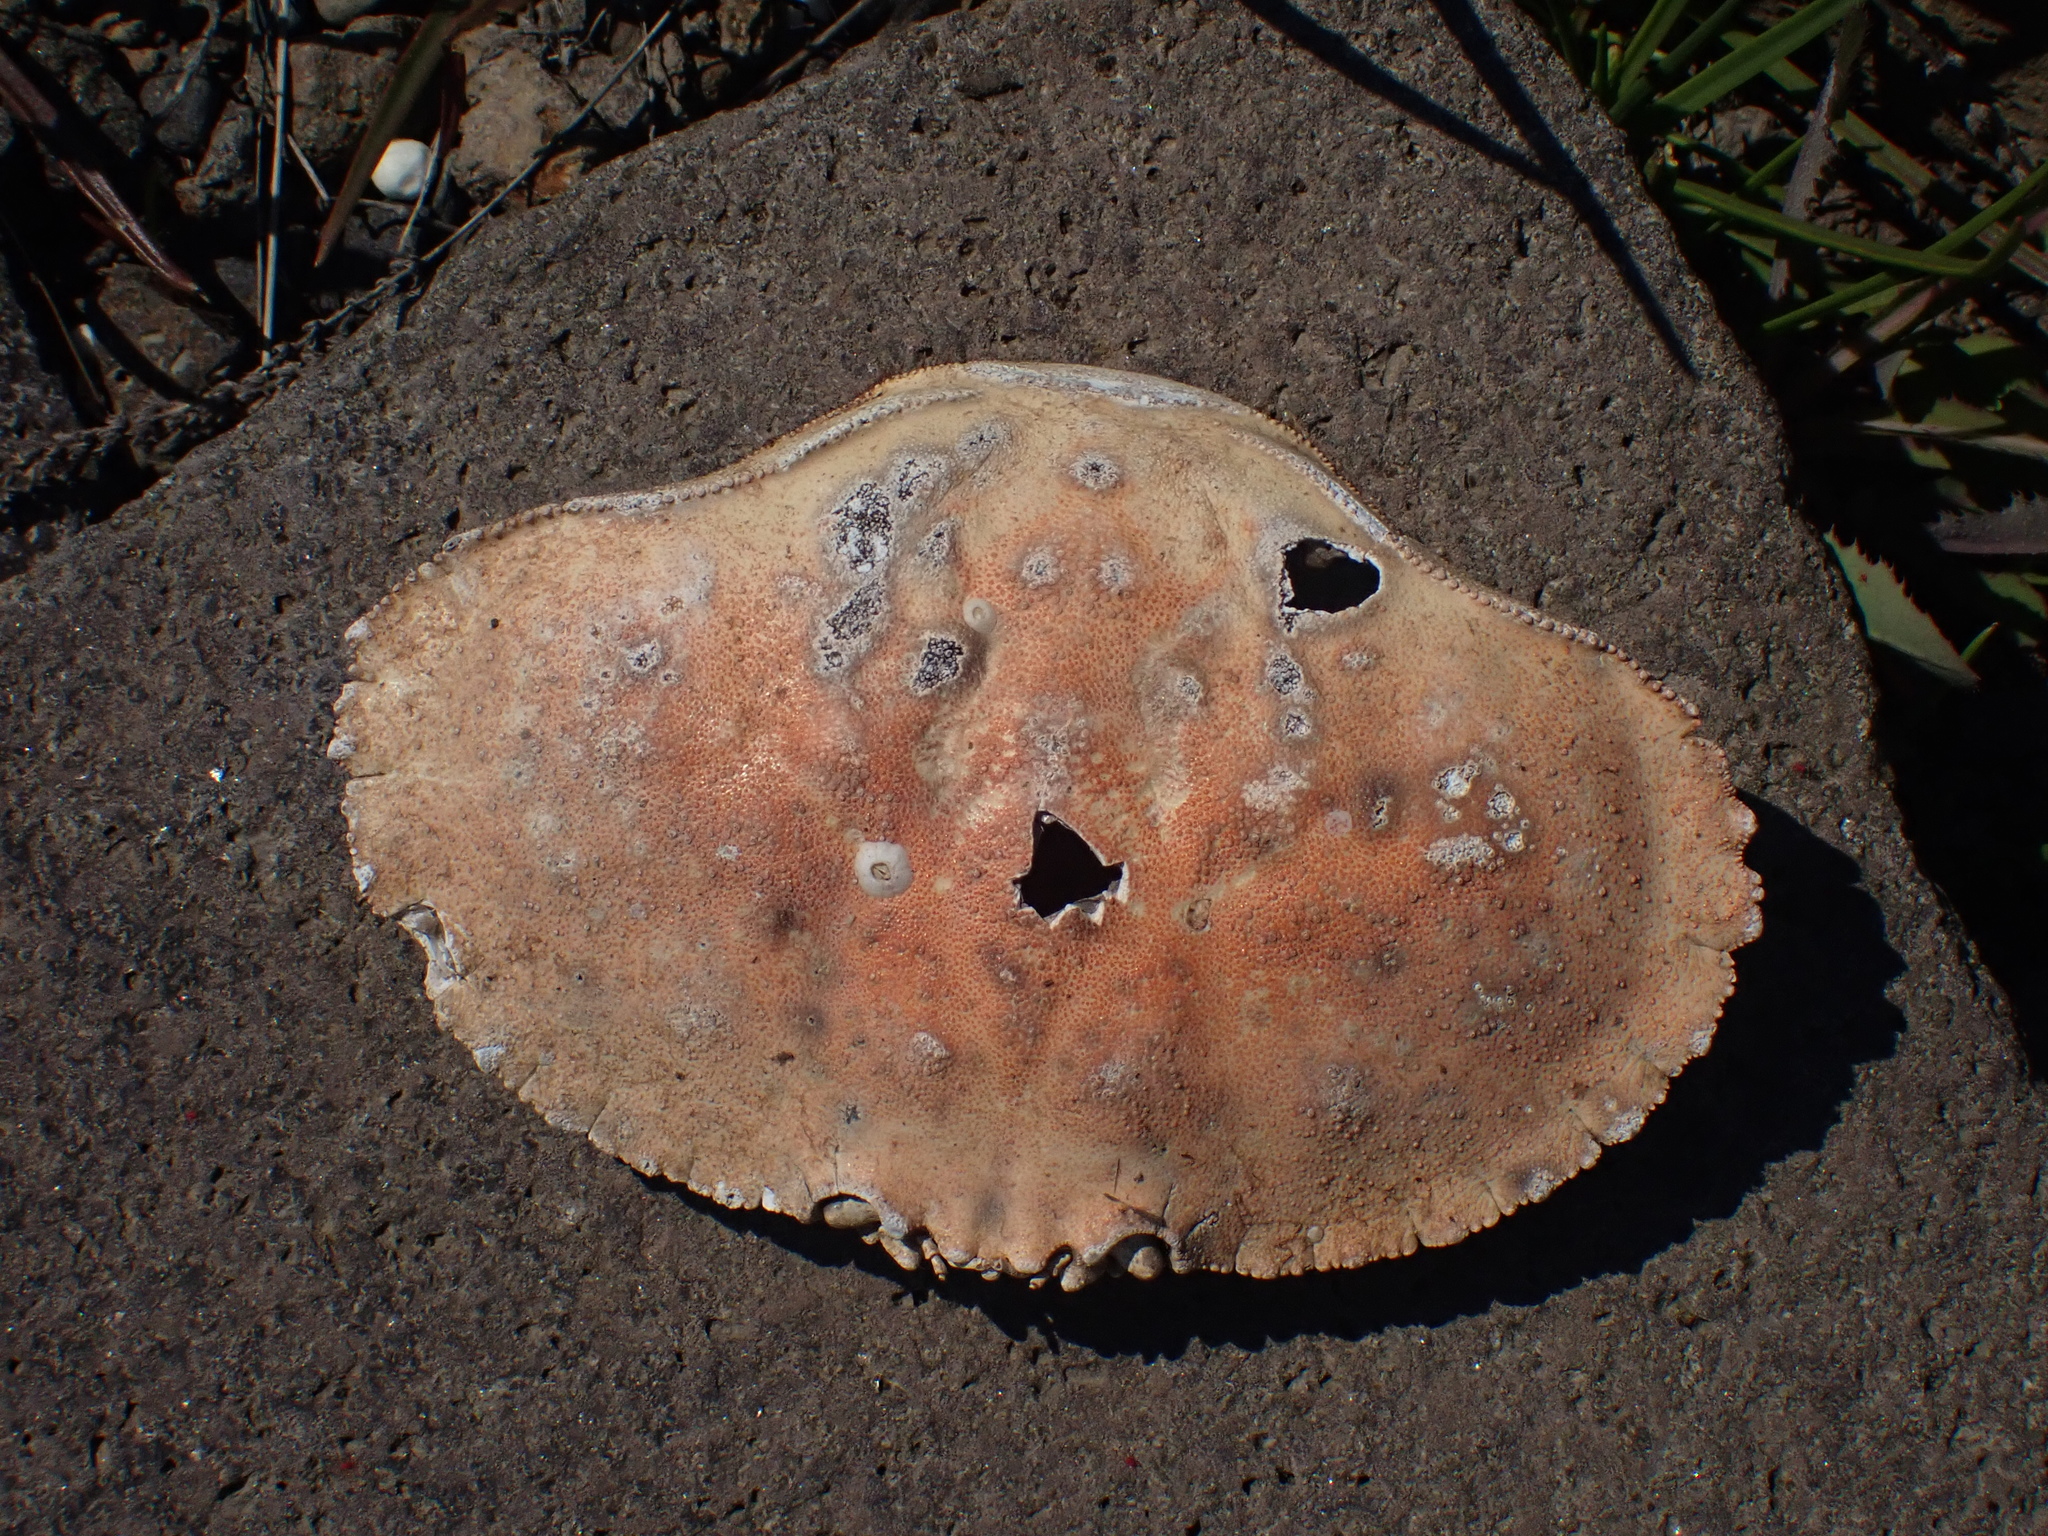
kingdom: Animalia
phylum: Arthropoda
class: Malacostraca
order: Decapoda
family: Cancridae
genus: Cancer
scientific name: Cancer borealis
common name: Jonah crab
